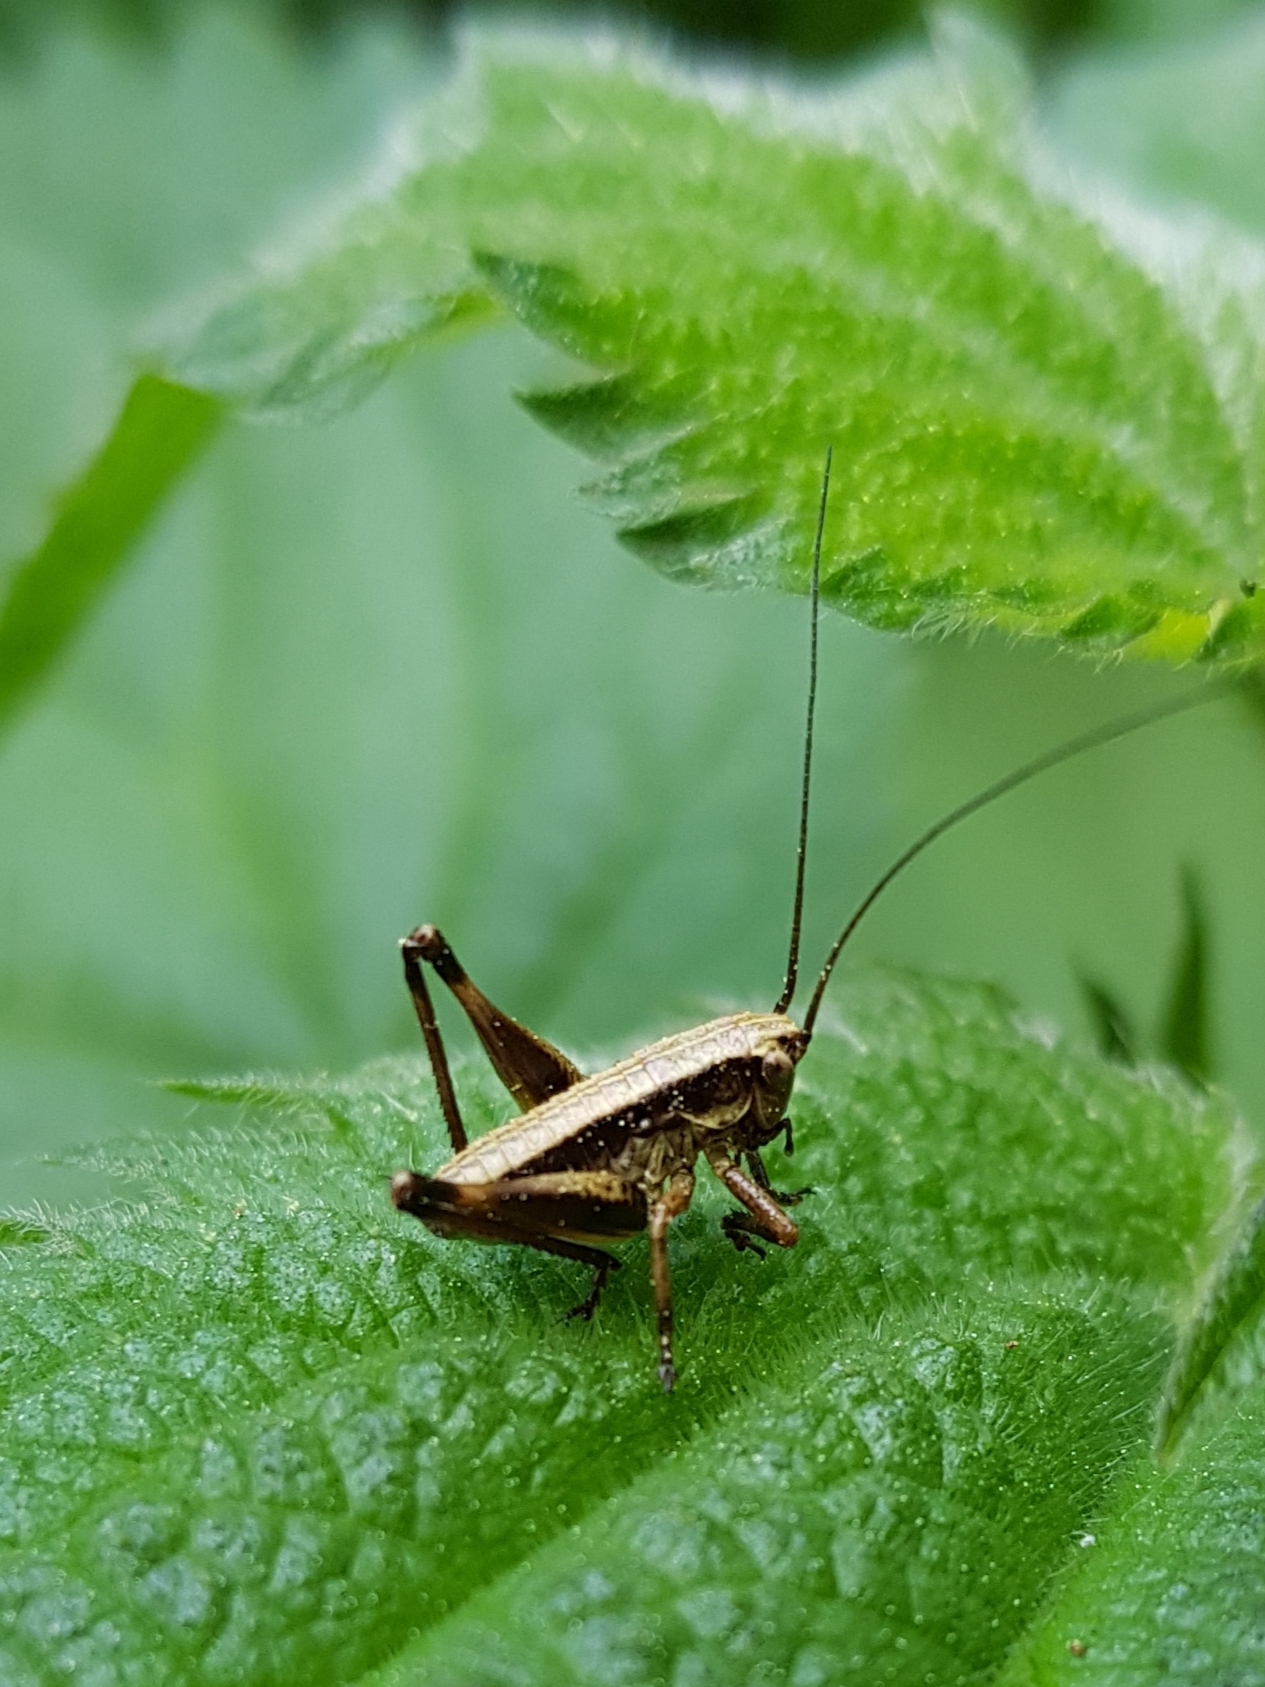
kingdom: Animalia
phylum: Arthropoda
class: Insecta
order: Orthoptera
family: Tettigoniidae
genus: Pholidoptera
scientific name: Pholidoptera griseoaptera
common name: Dark bush-cricket
